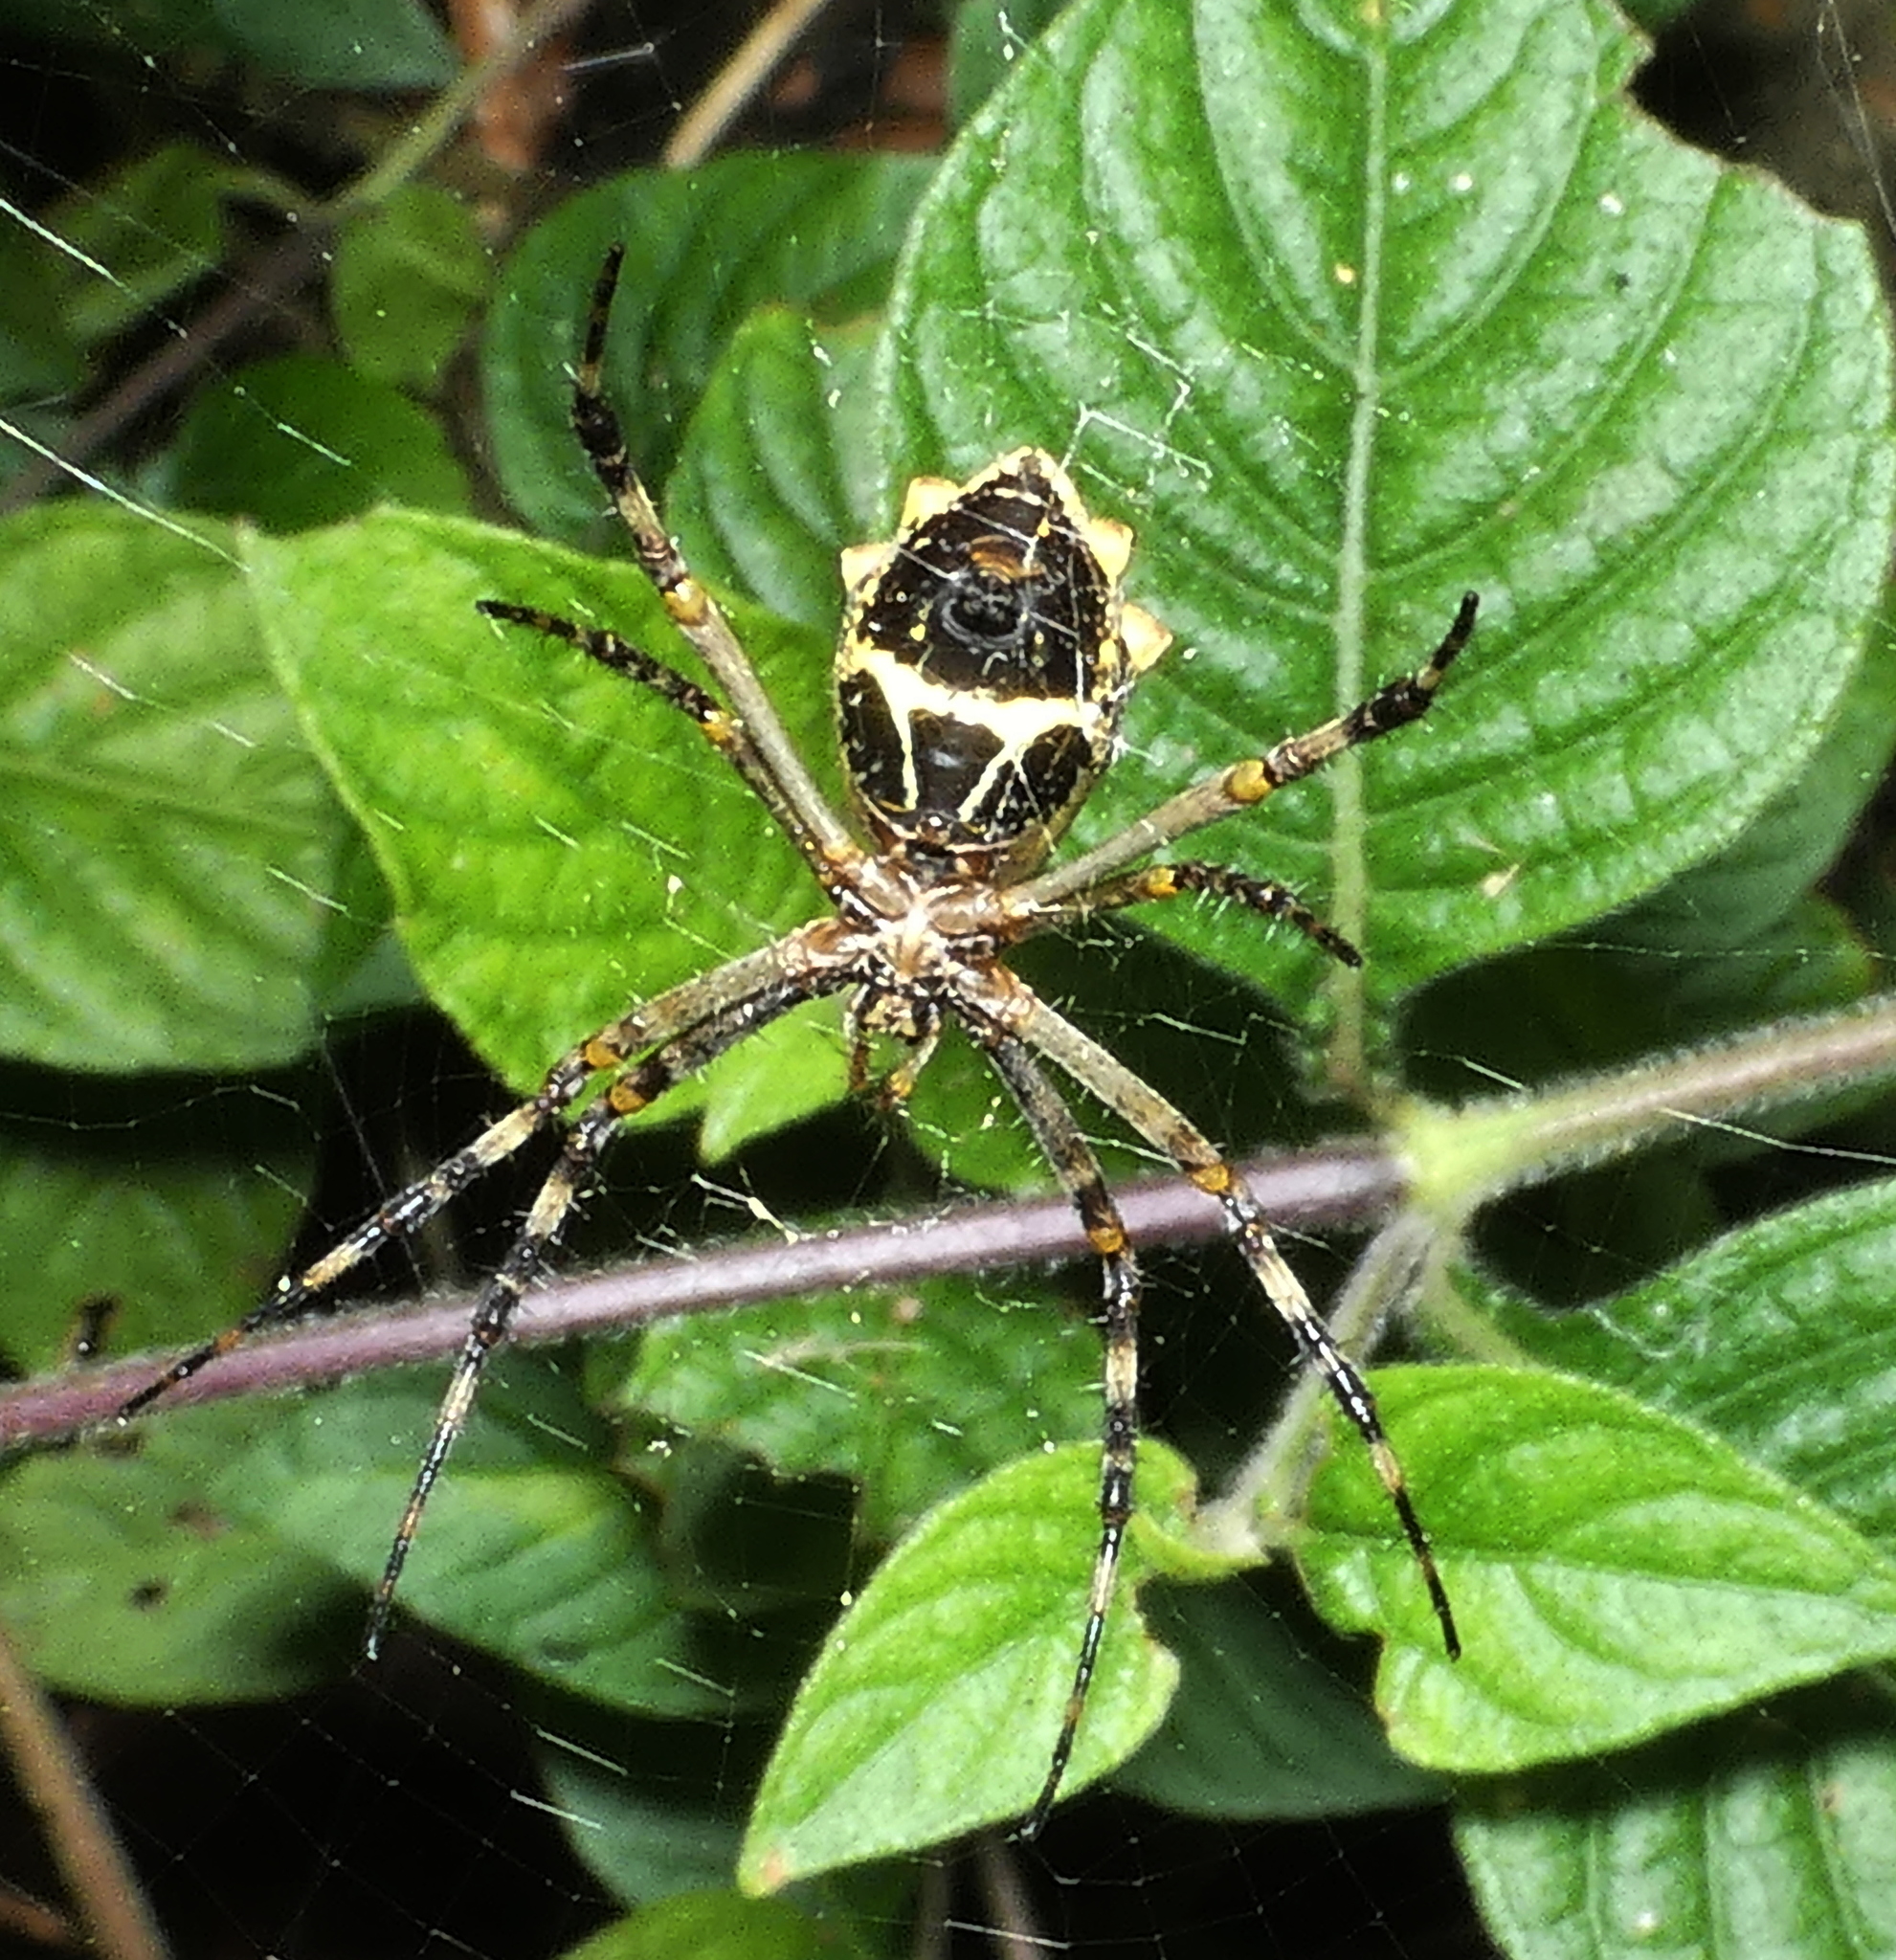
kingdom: Animalia
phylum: Arthropoda
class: Arachnida
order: Araneae
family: Araneidae
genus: Argiope
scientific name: Argiope argentata
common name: Orb weavers
